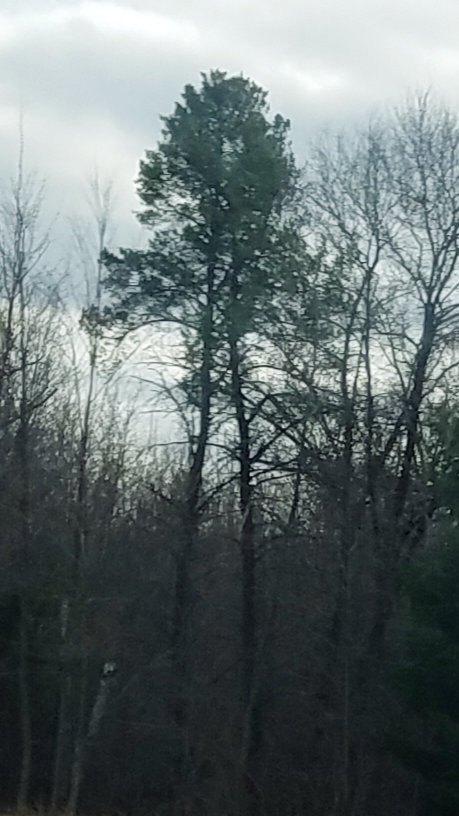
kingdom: Plantae
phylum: Tracheophyta
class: Pinopsida
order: Pinales
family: Pinaceae
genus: Pinus
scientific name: Pinus sylvestris
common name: Scots pine
